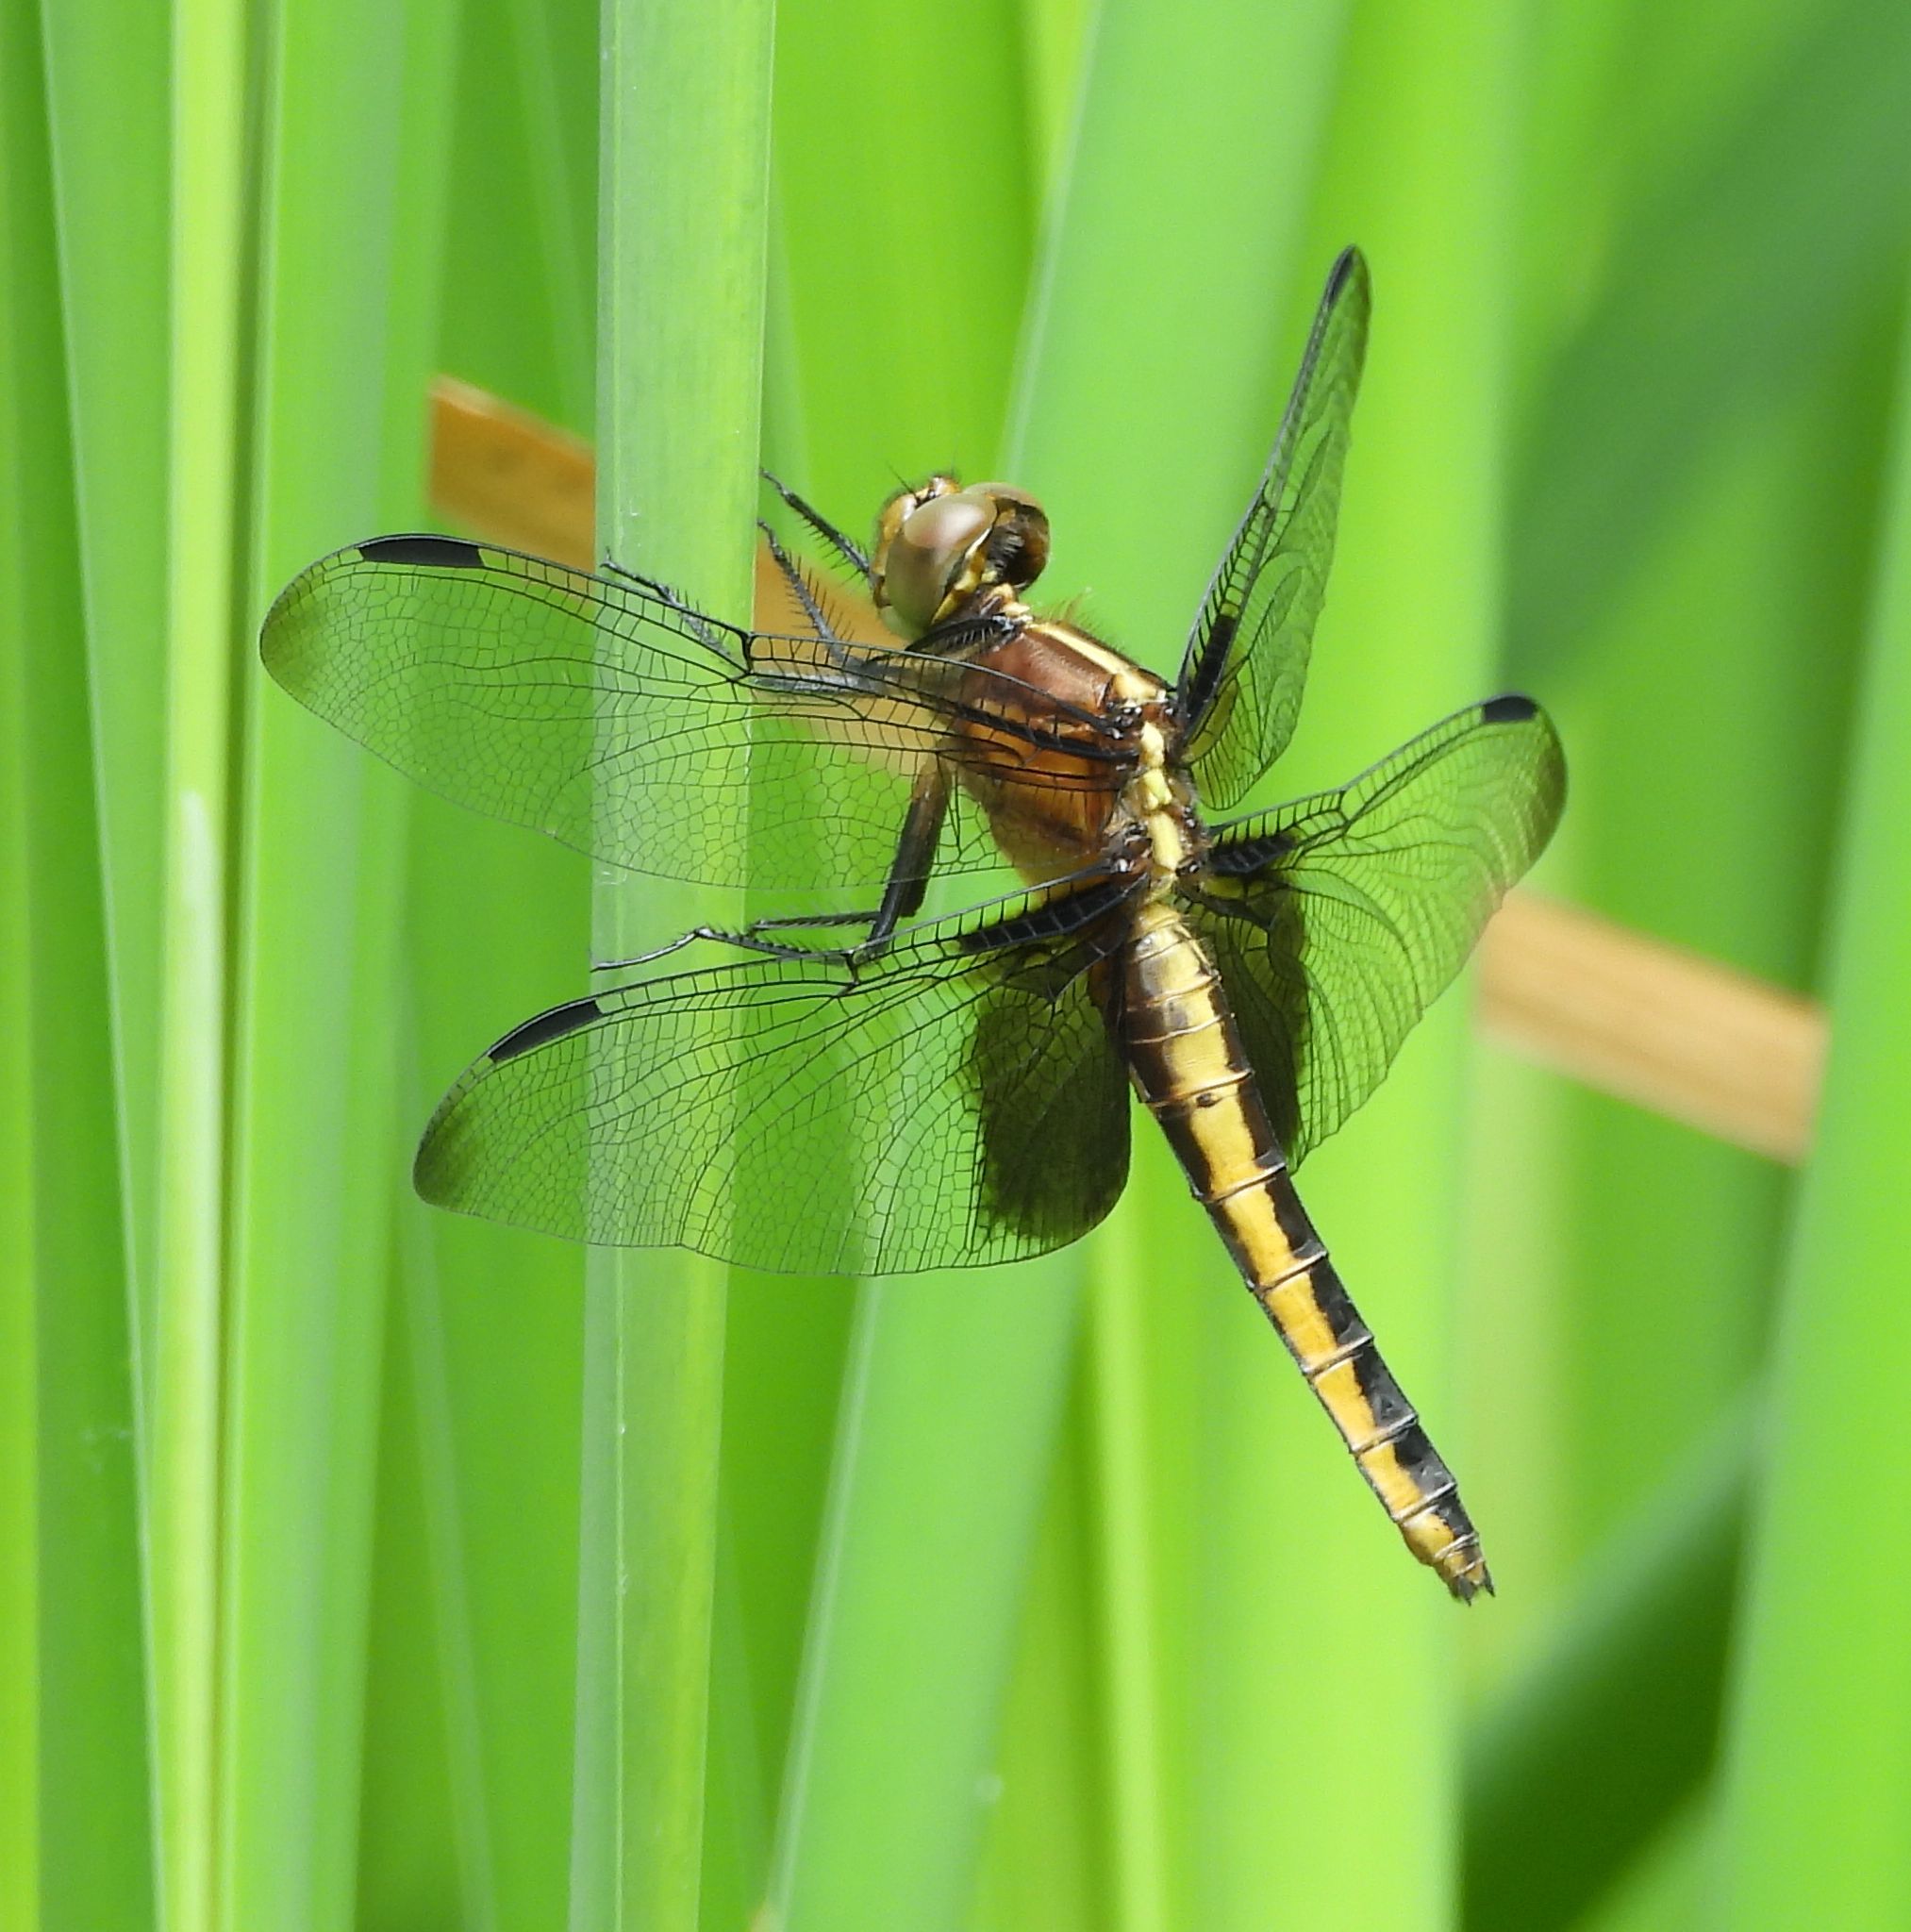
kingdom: Animalia
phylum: Arthropoda
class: Insecta
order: Odonata
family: Libellulidae
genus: Libellula
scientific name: Libellula luctuosa
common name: Widow skimmer
